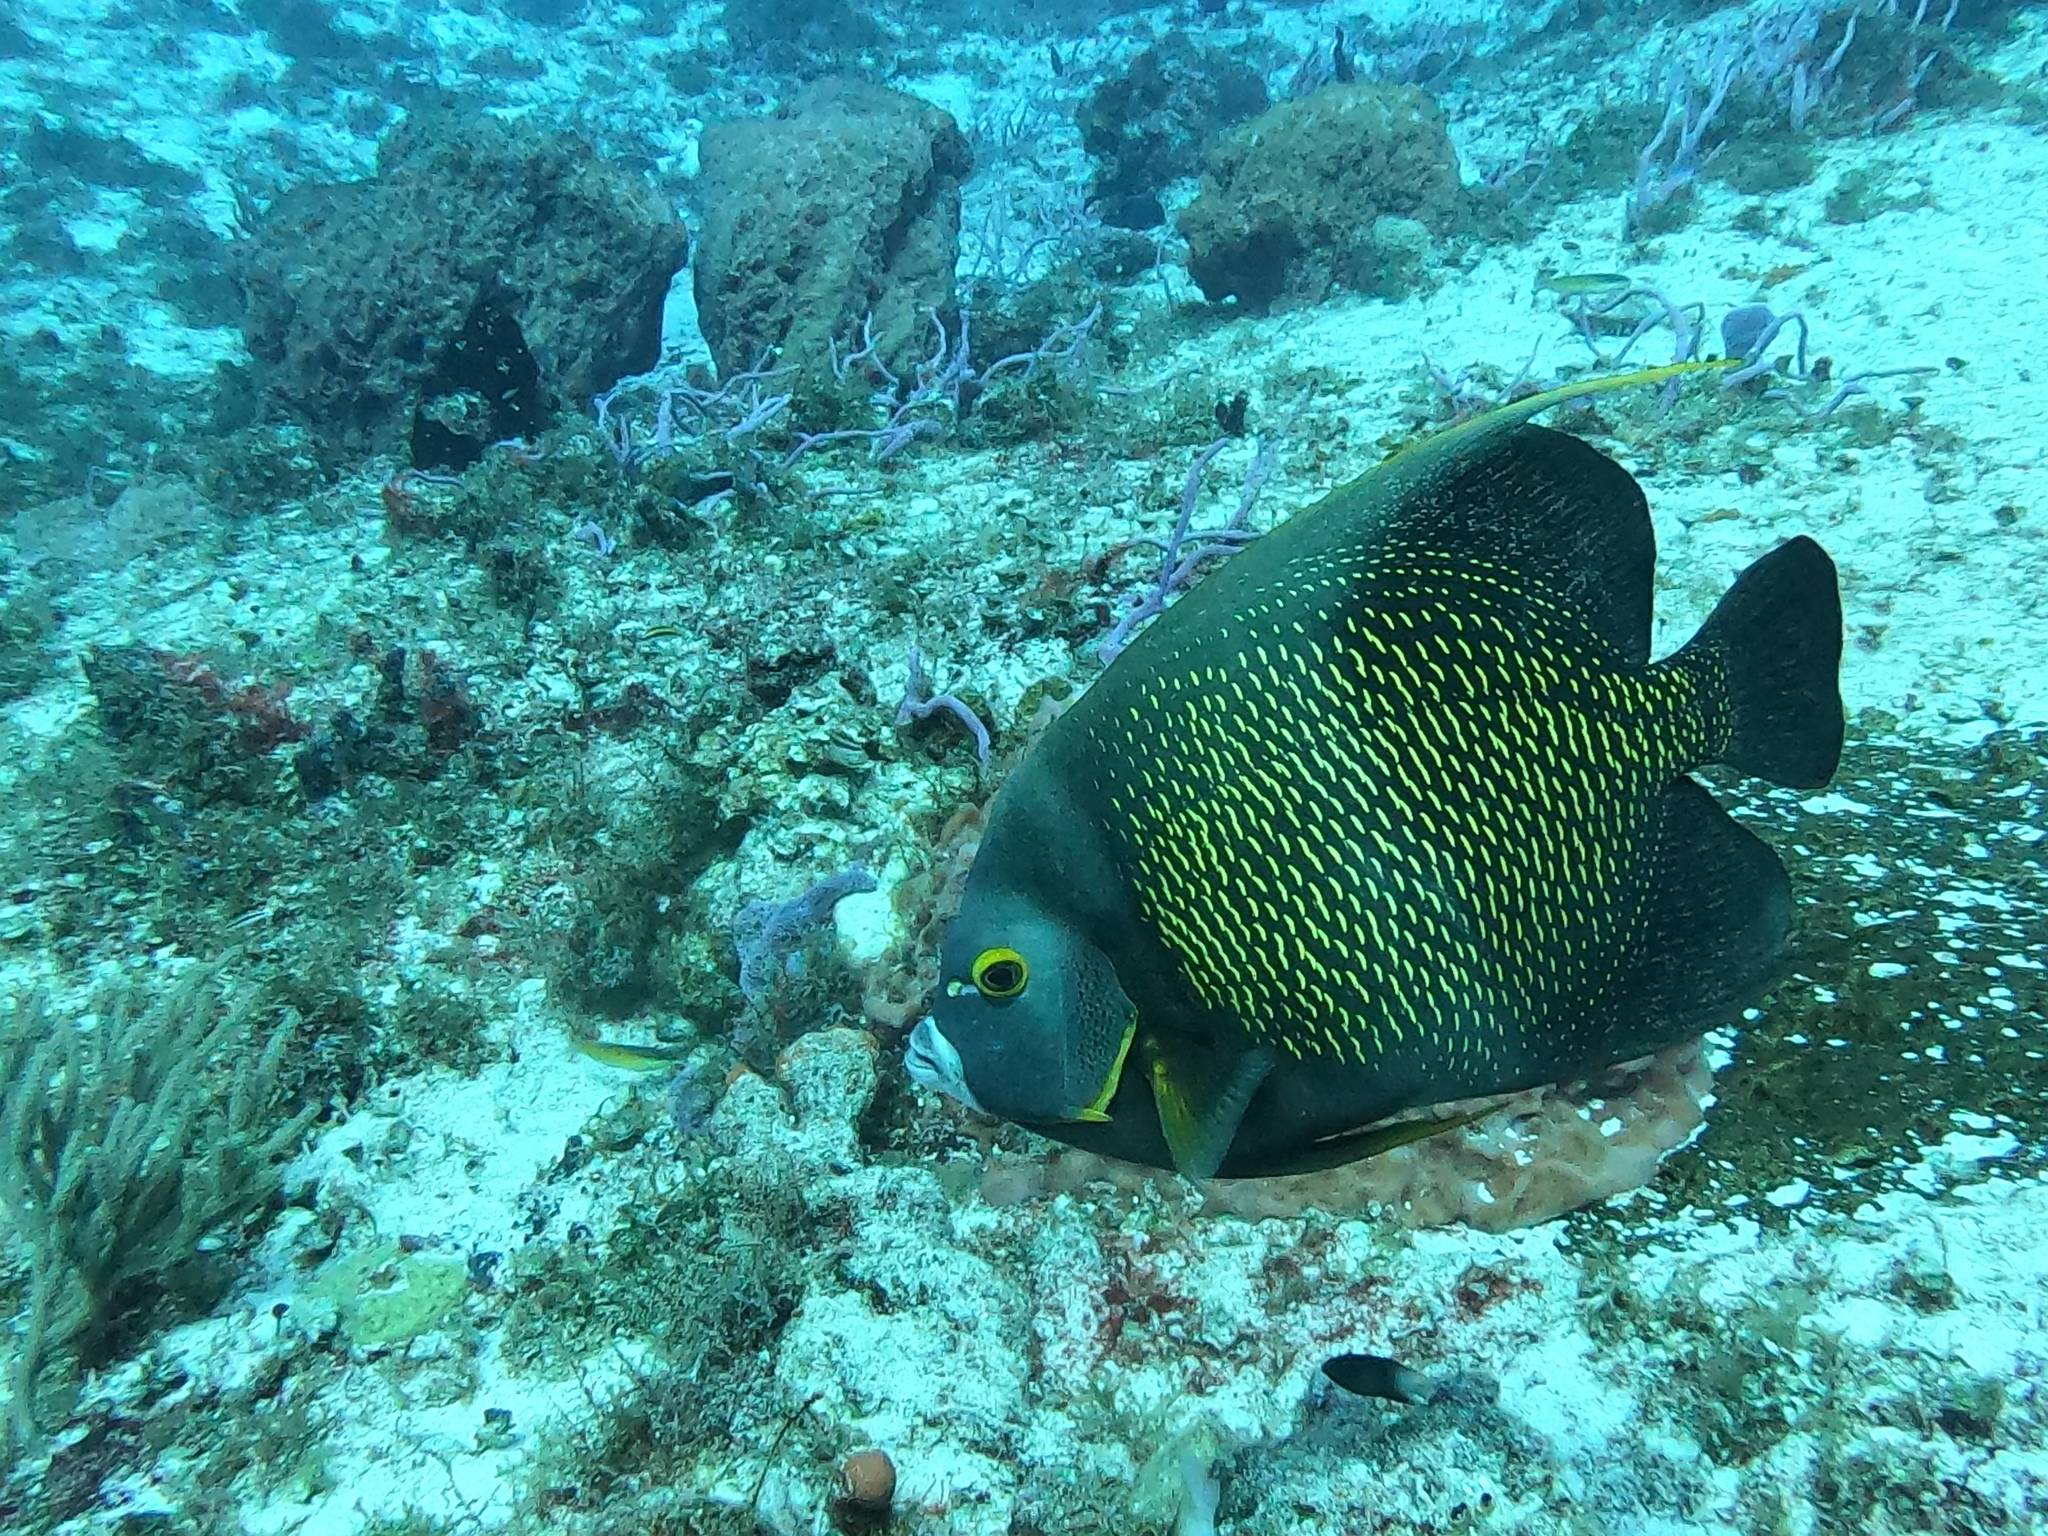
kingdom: Animalia
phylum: Chordata
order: Perciformes
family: Pomacanthidae
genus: Pomacanthus
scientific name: Pomacanthus paru
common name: French angelfish
